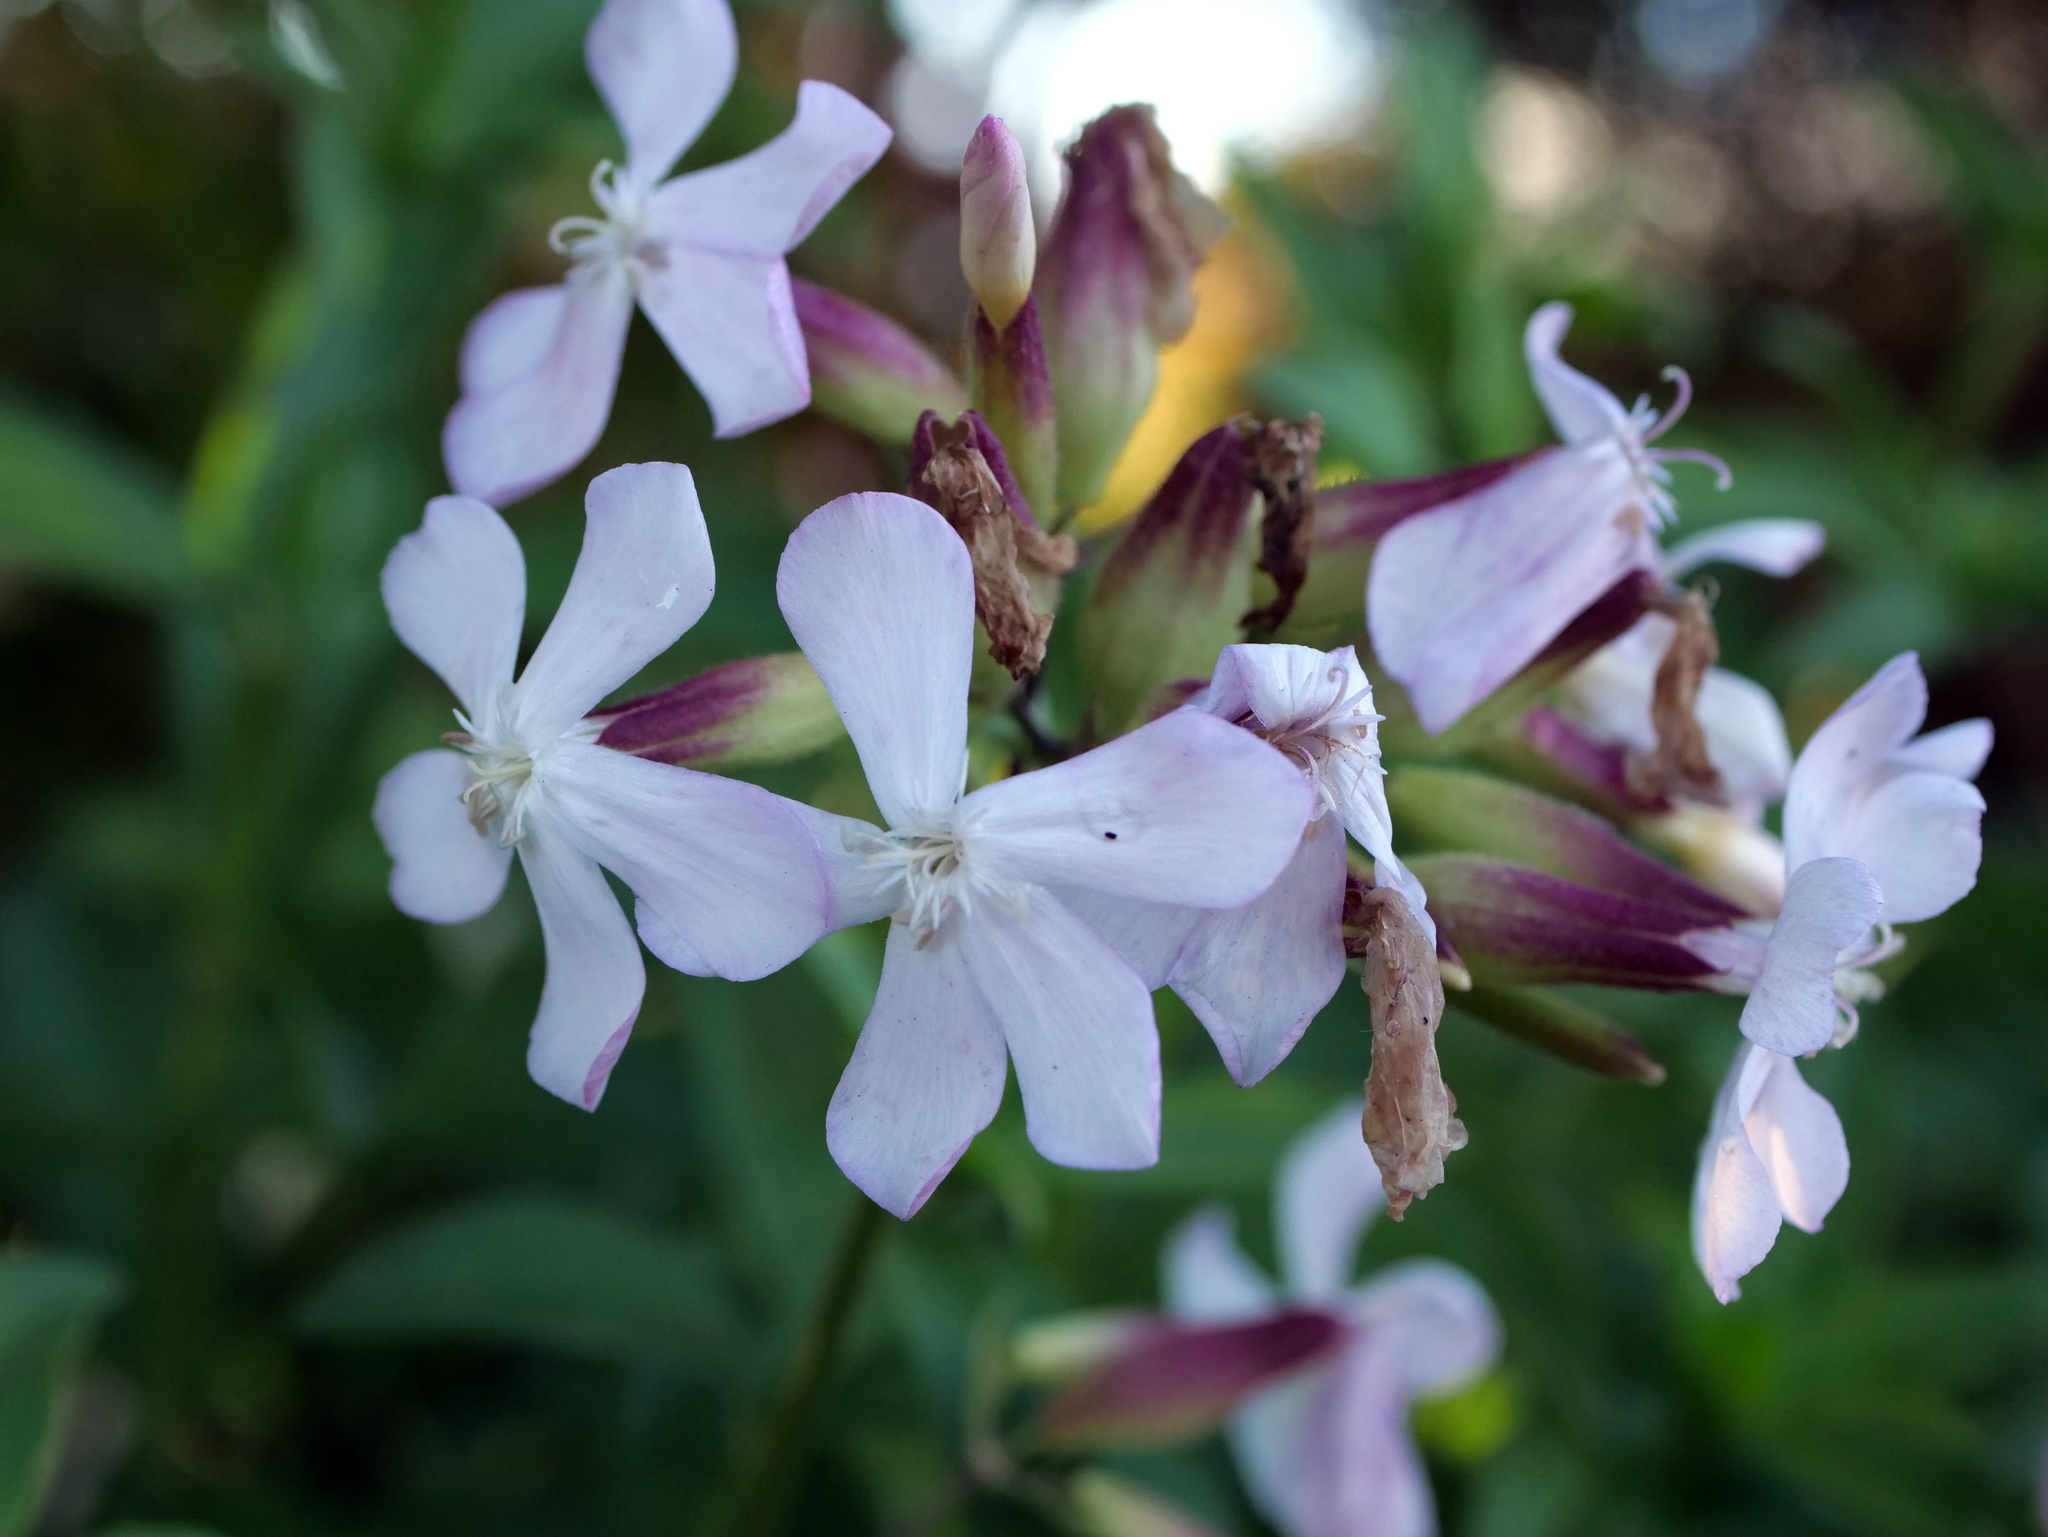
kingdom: Plantae
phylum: Tracheophyta
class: Magnoliopsida
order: Caryophyllales
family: Caryophyllaceae
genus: Saponaria
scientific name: Saponaria officinalis
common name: Soapwort
